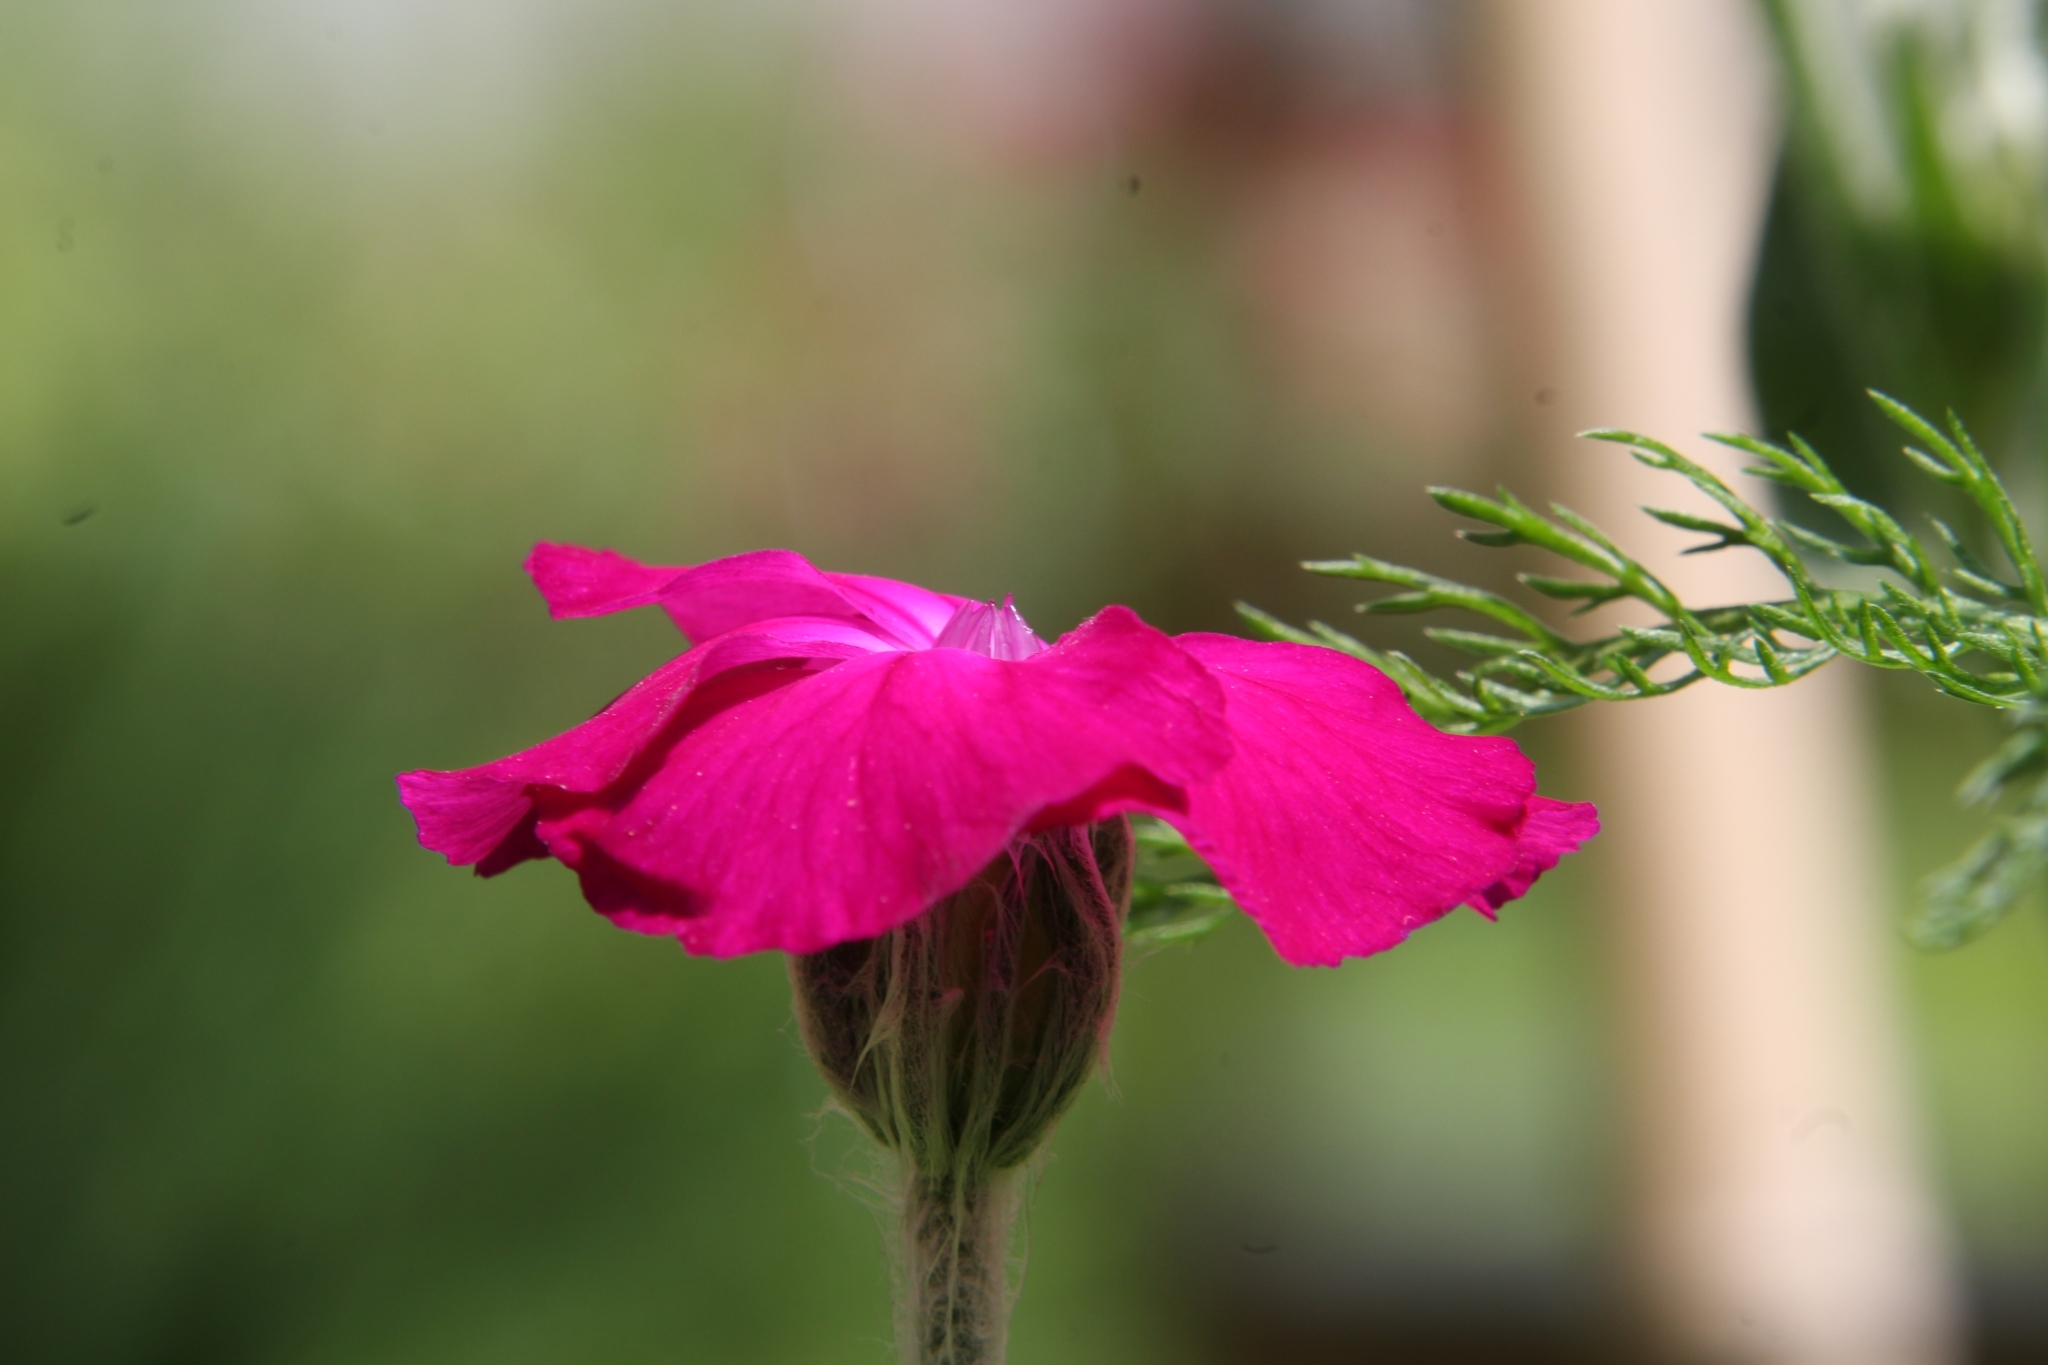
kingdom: Plantae
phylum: Tracheophyta
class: Magnoliopsida
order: Caryophyllales
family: Caryophyllaceae
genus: Silene
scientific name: Silene coronaria
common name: Rose campion
